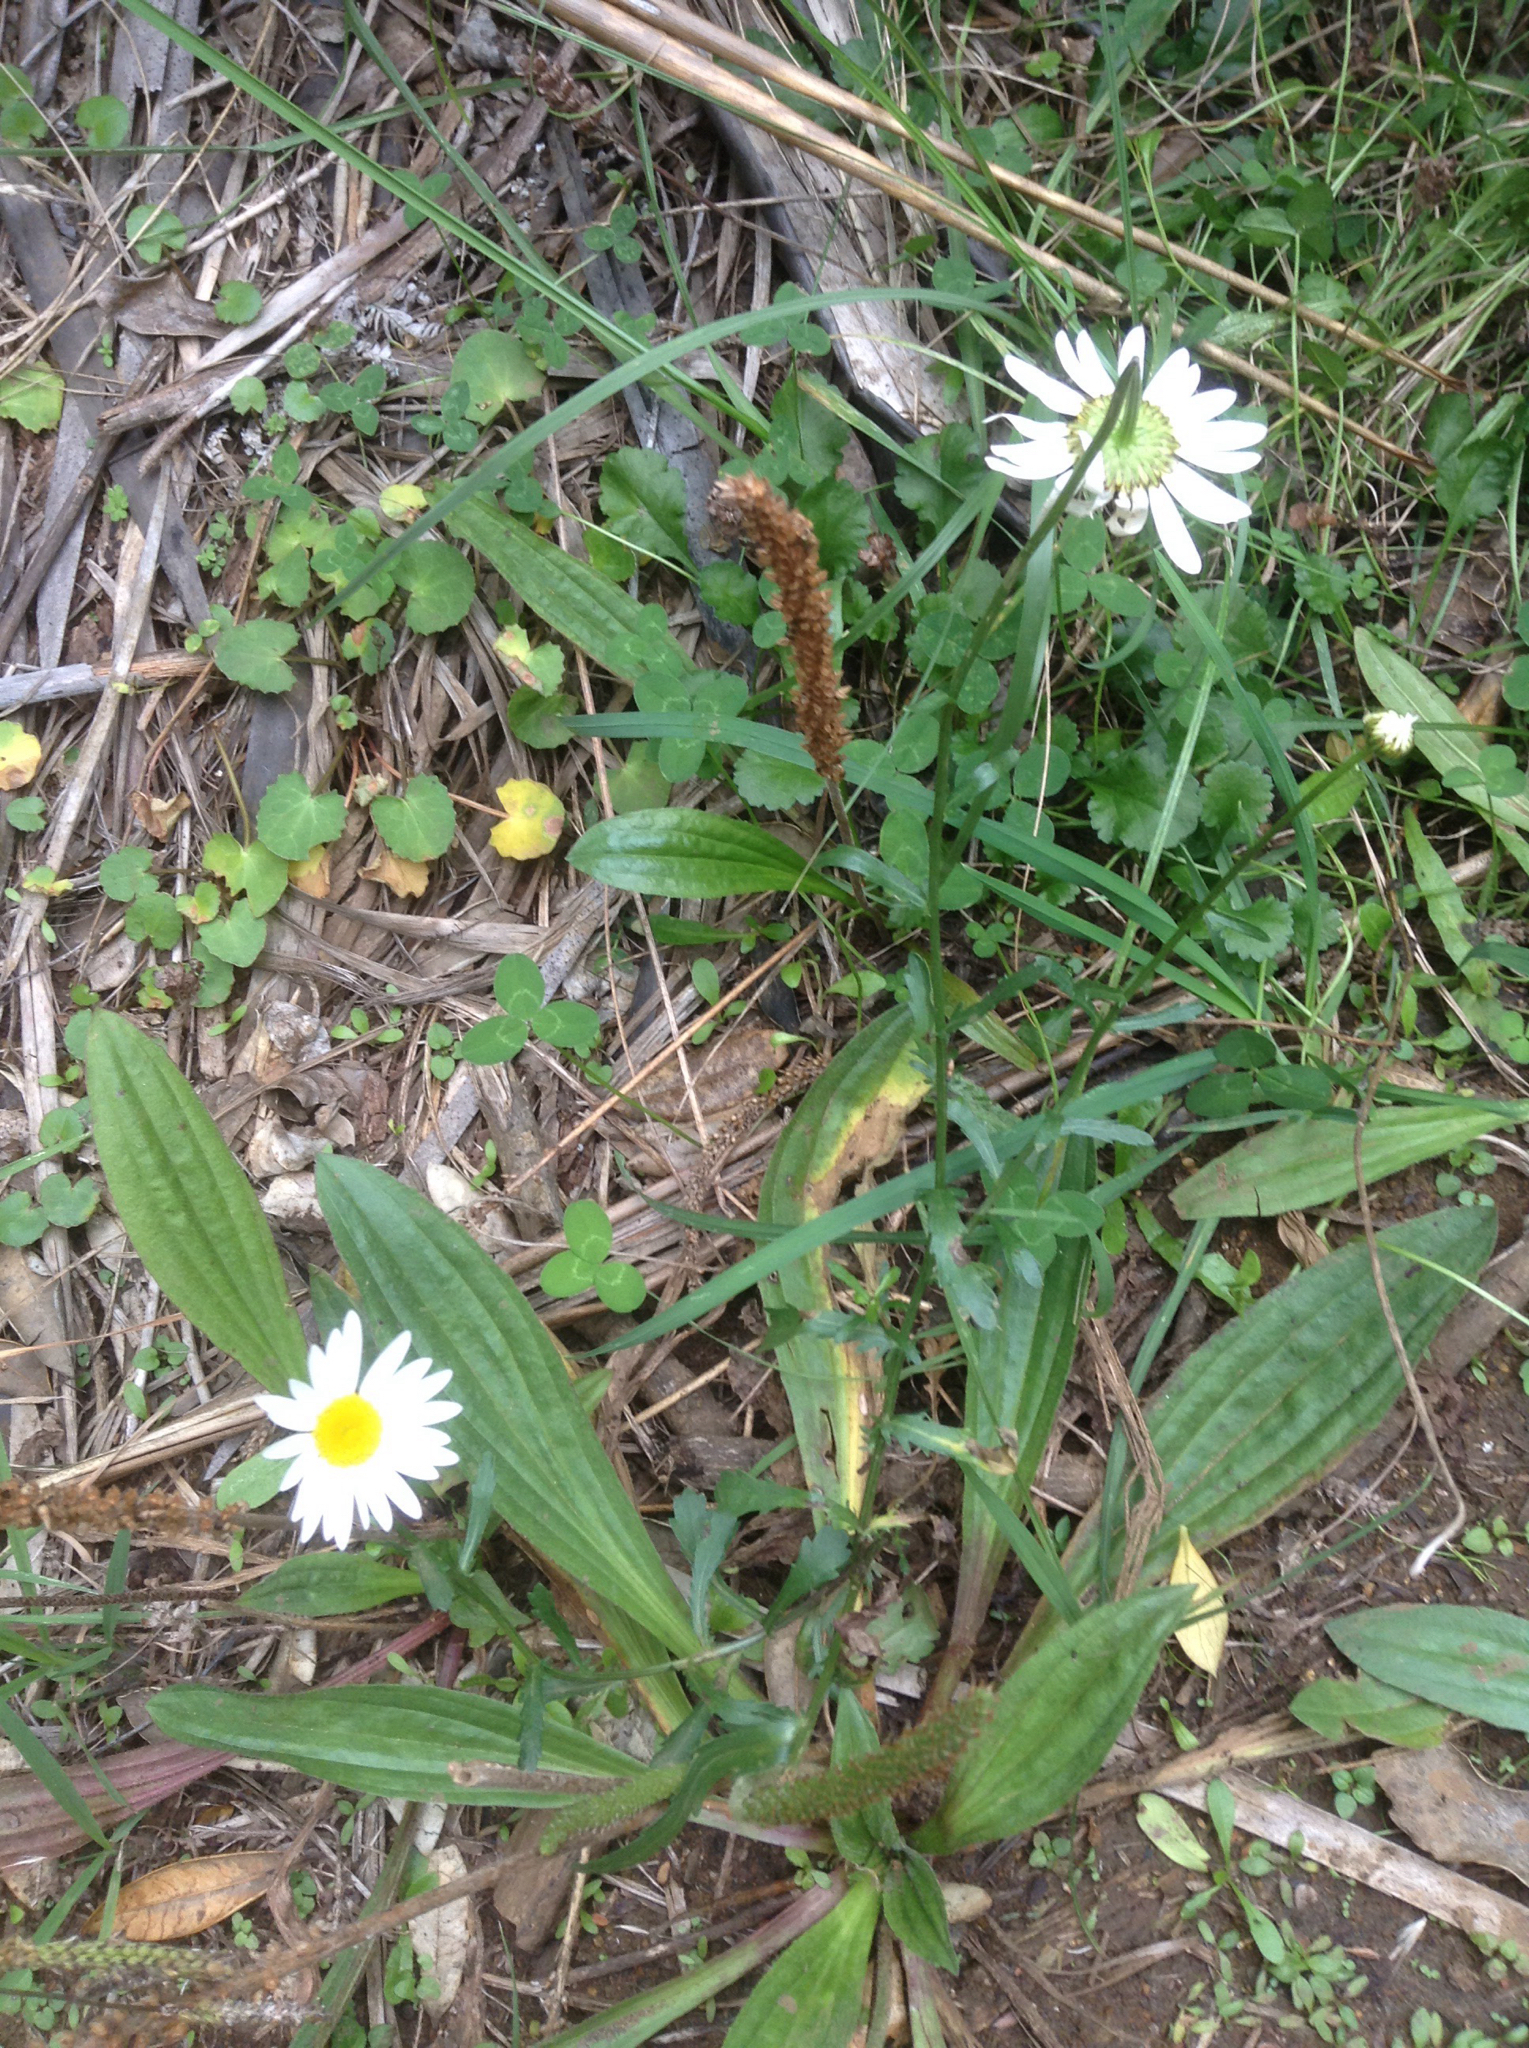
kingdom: Plantae
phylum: Tracheophyta
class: Magnoliopsida
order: Asterales
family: Asteraceae
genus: Leucanthemum
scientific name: Leucanthemum vulgare
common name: Oxeye daisy
